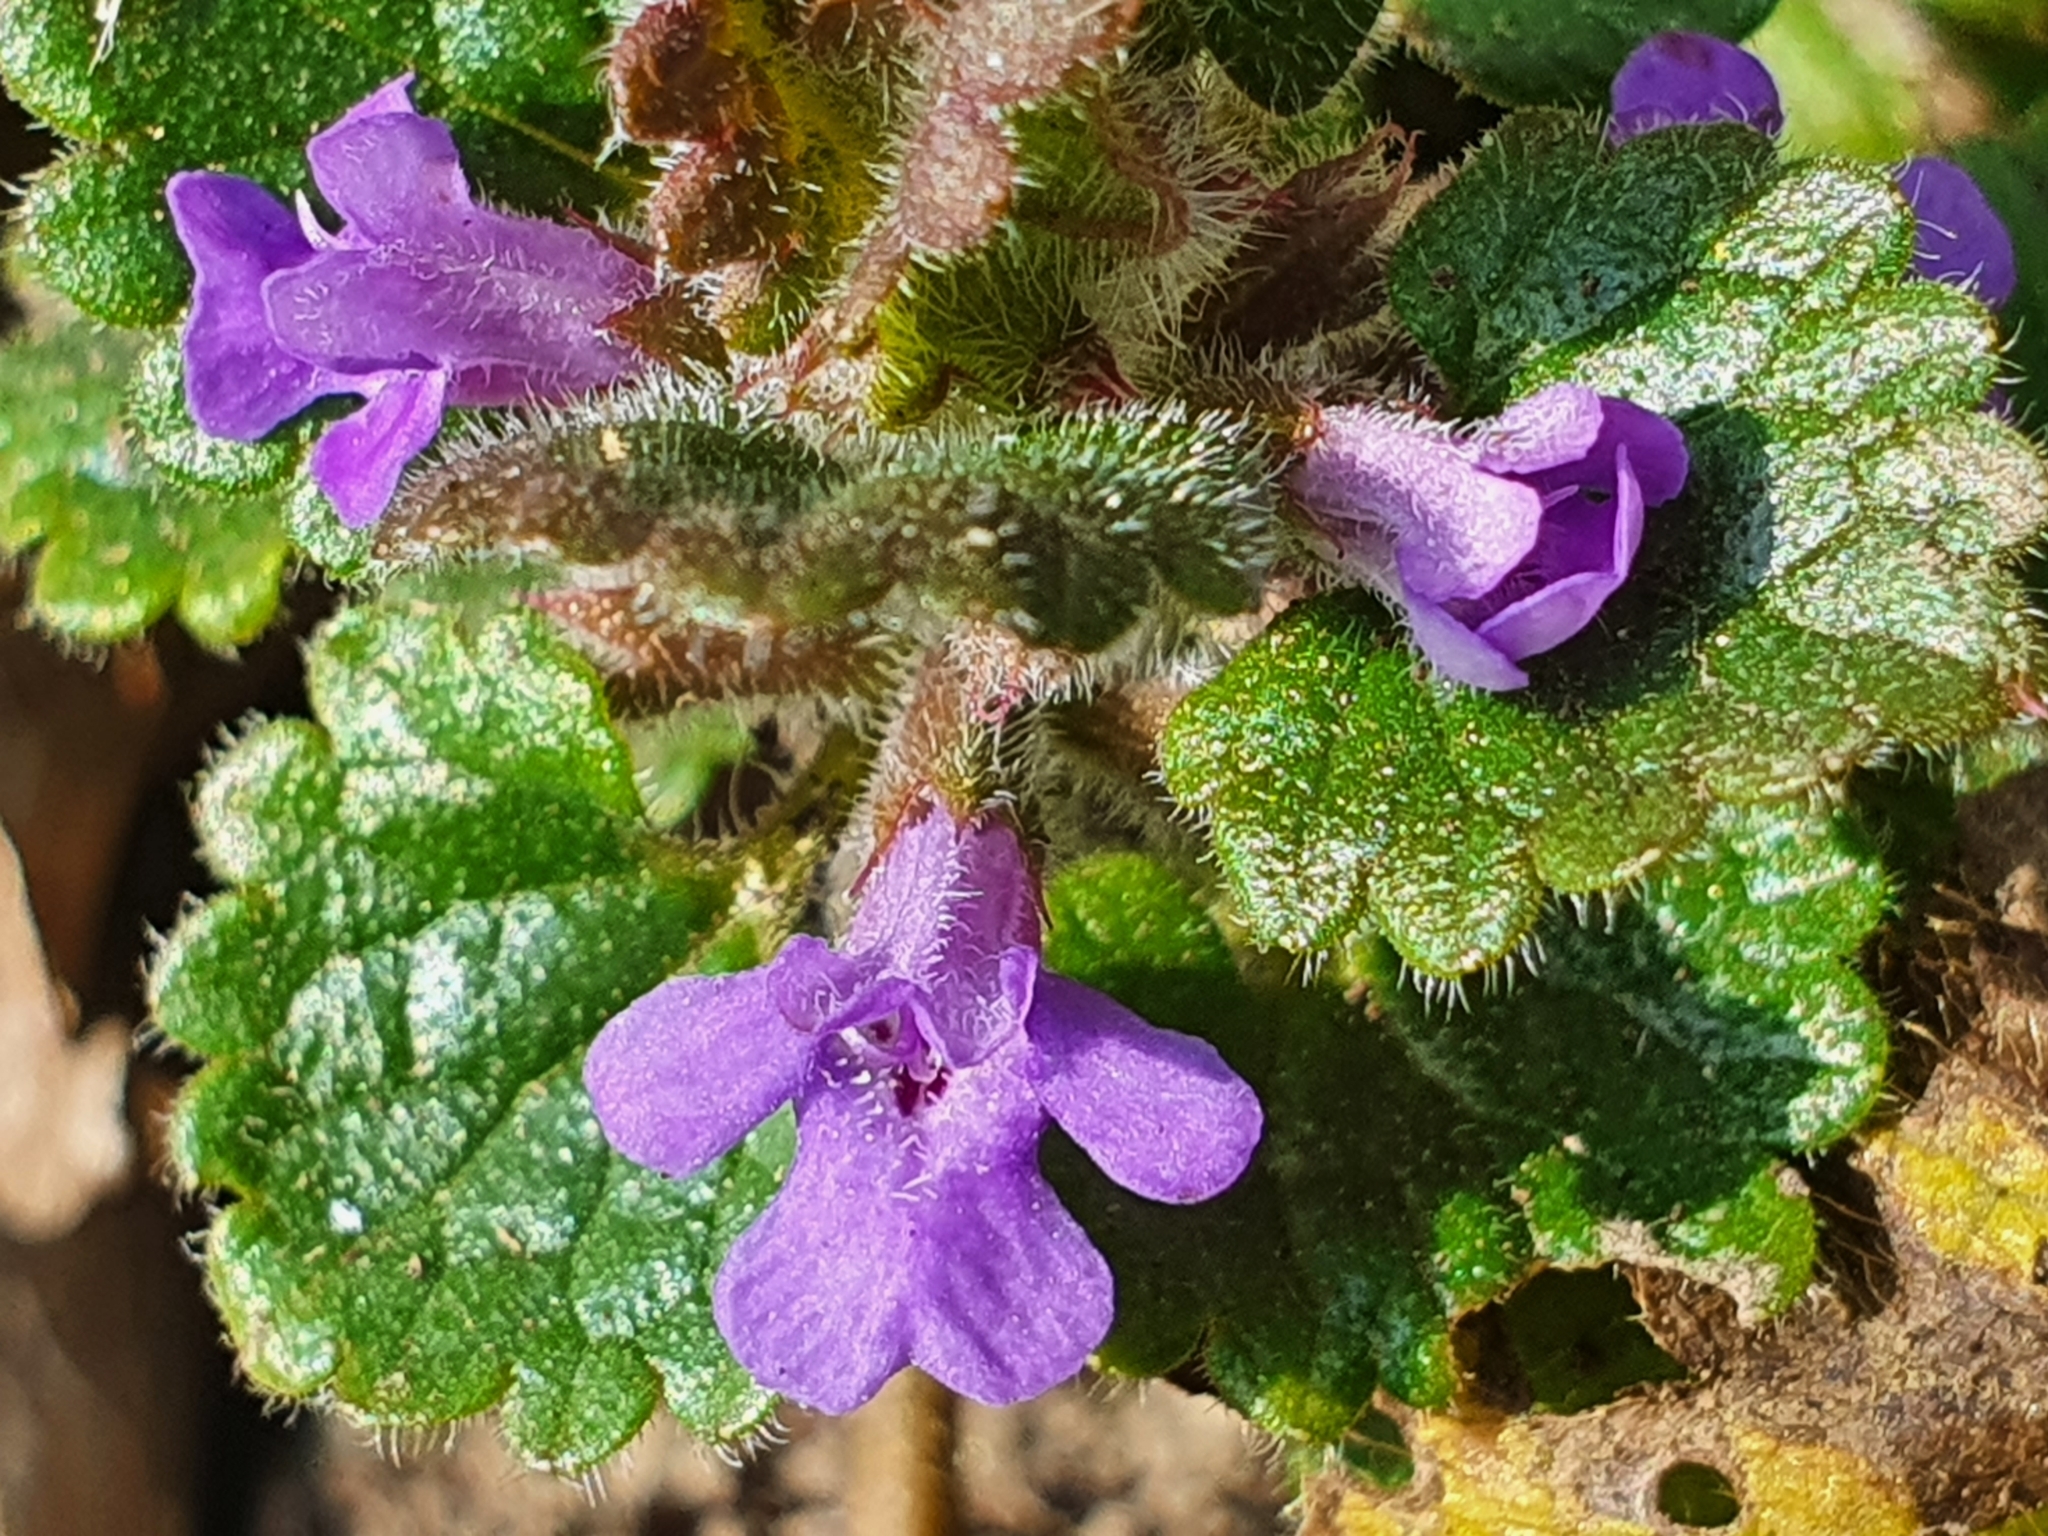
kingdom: Plantae
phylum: Tracheophyta
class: Magnoliopsida
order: Lamiales
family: Lamiaceae
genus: Glechoma
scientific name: Glechoma hederacea
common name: Ground ivy
